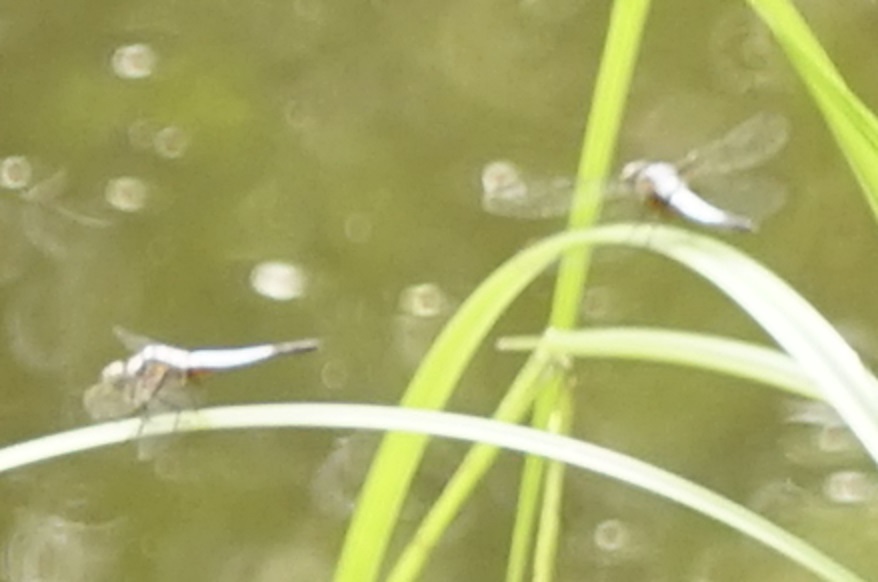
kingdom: Animalia
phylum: Arthropoda
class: Insecta
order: Odonata
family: Libellulidae
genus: Brachydiplax
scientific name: Brachydiplax chalybea
